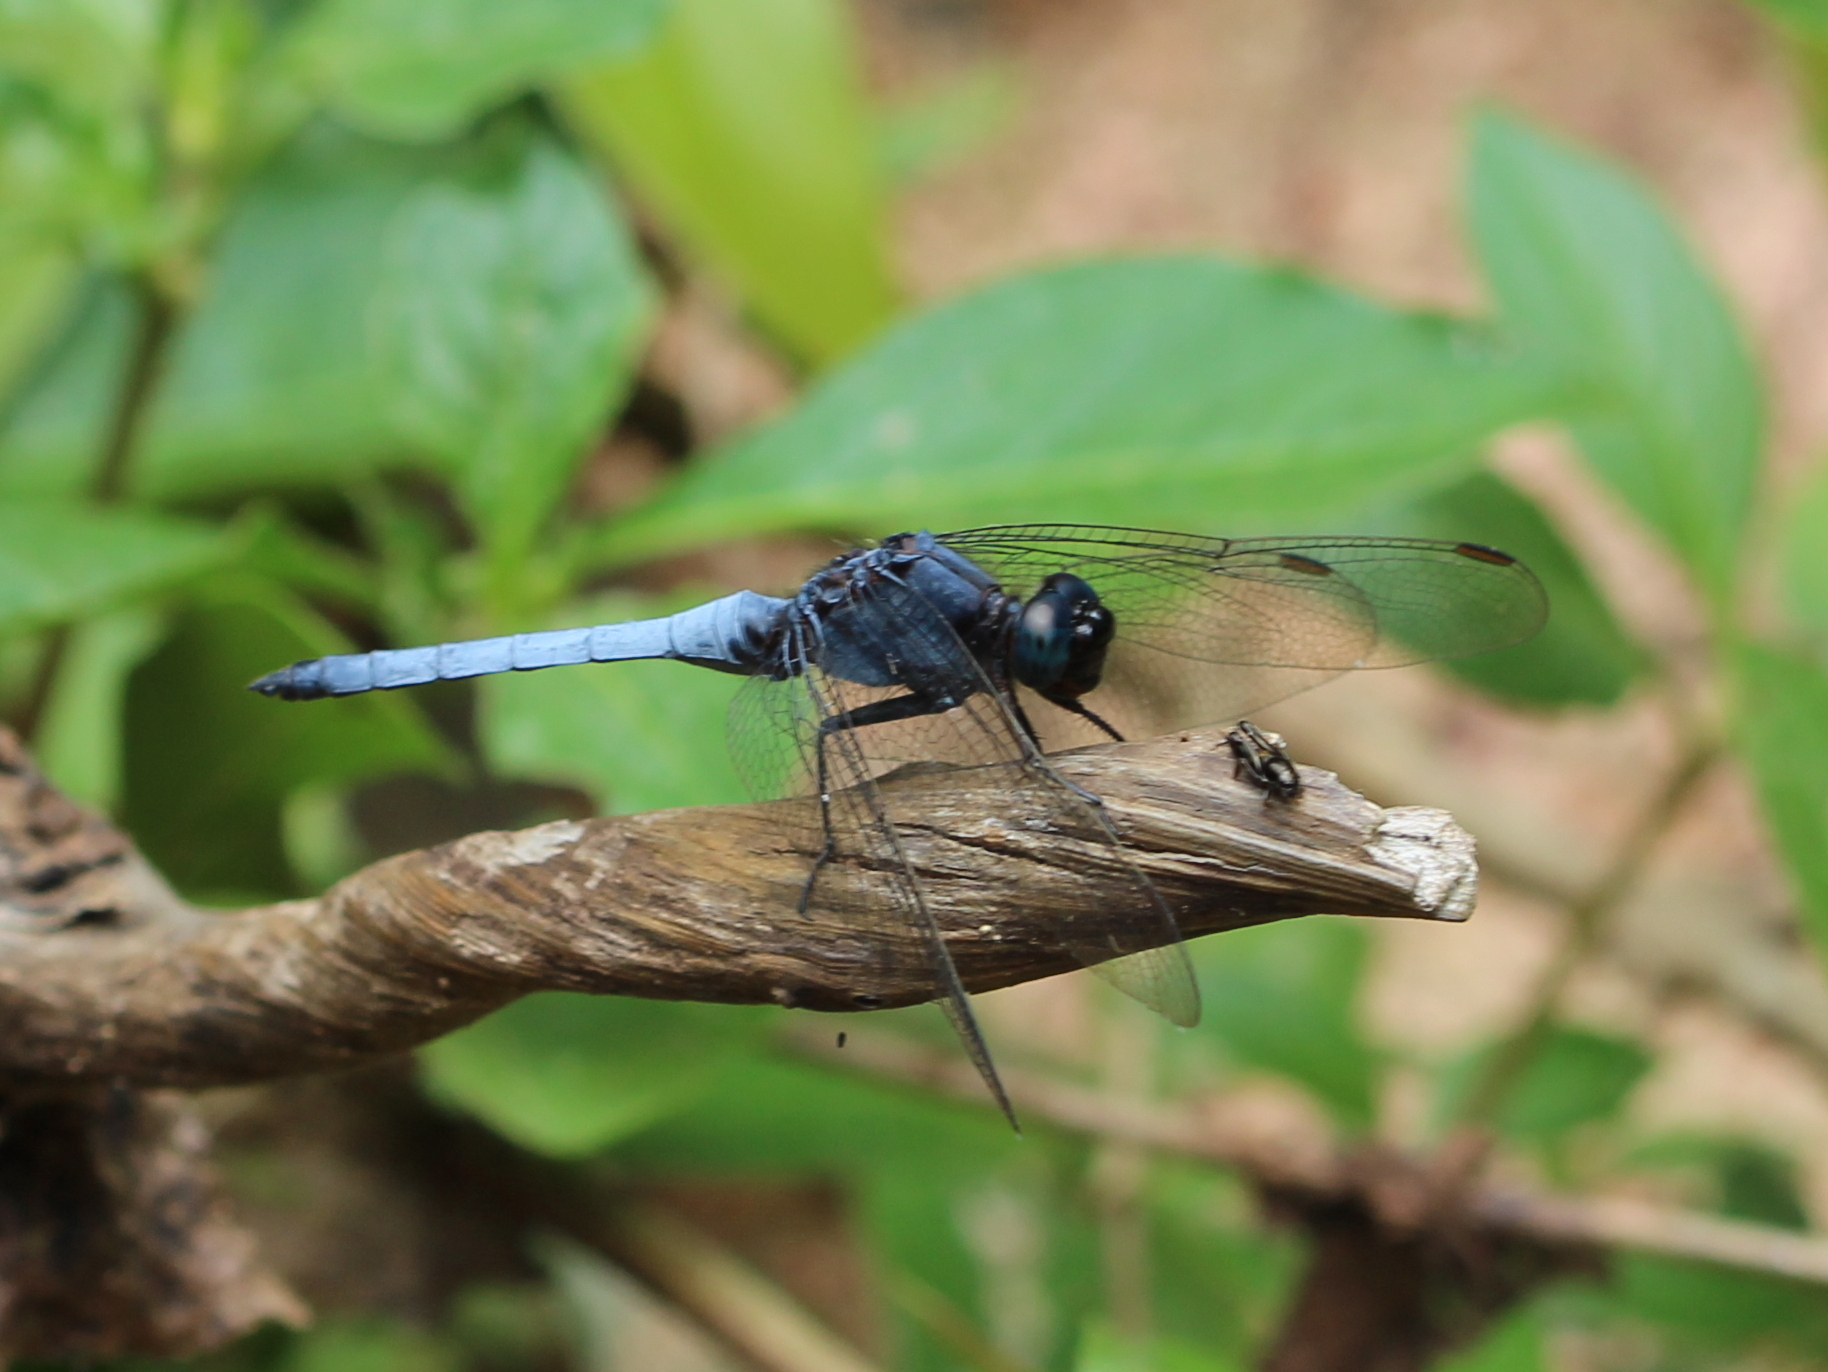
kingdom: Animalia
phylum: Arthropoda
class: Insecta
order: Odonata
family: Libellulidae
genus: Orthetrum
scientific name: Orthetrum glaucum
